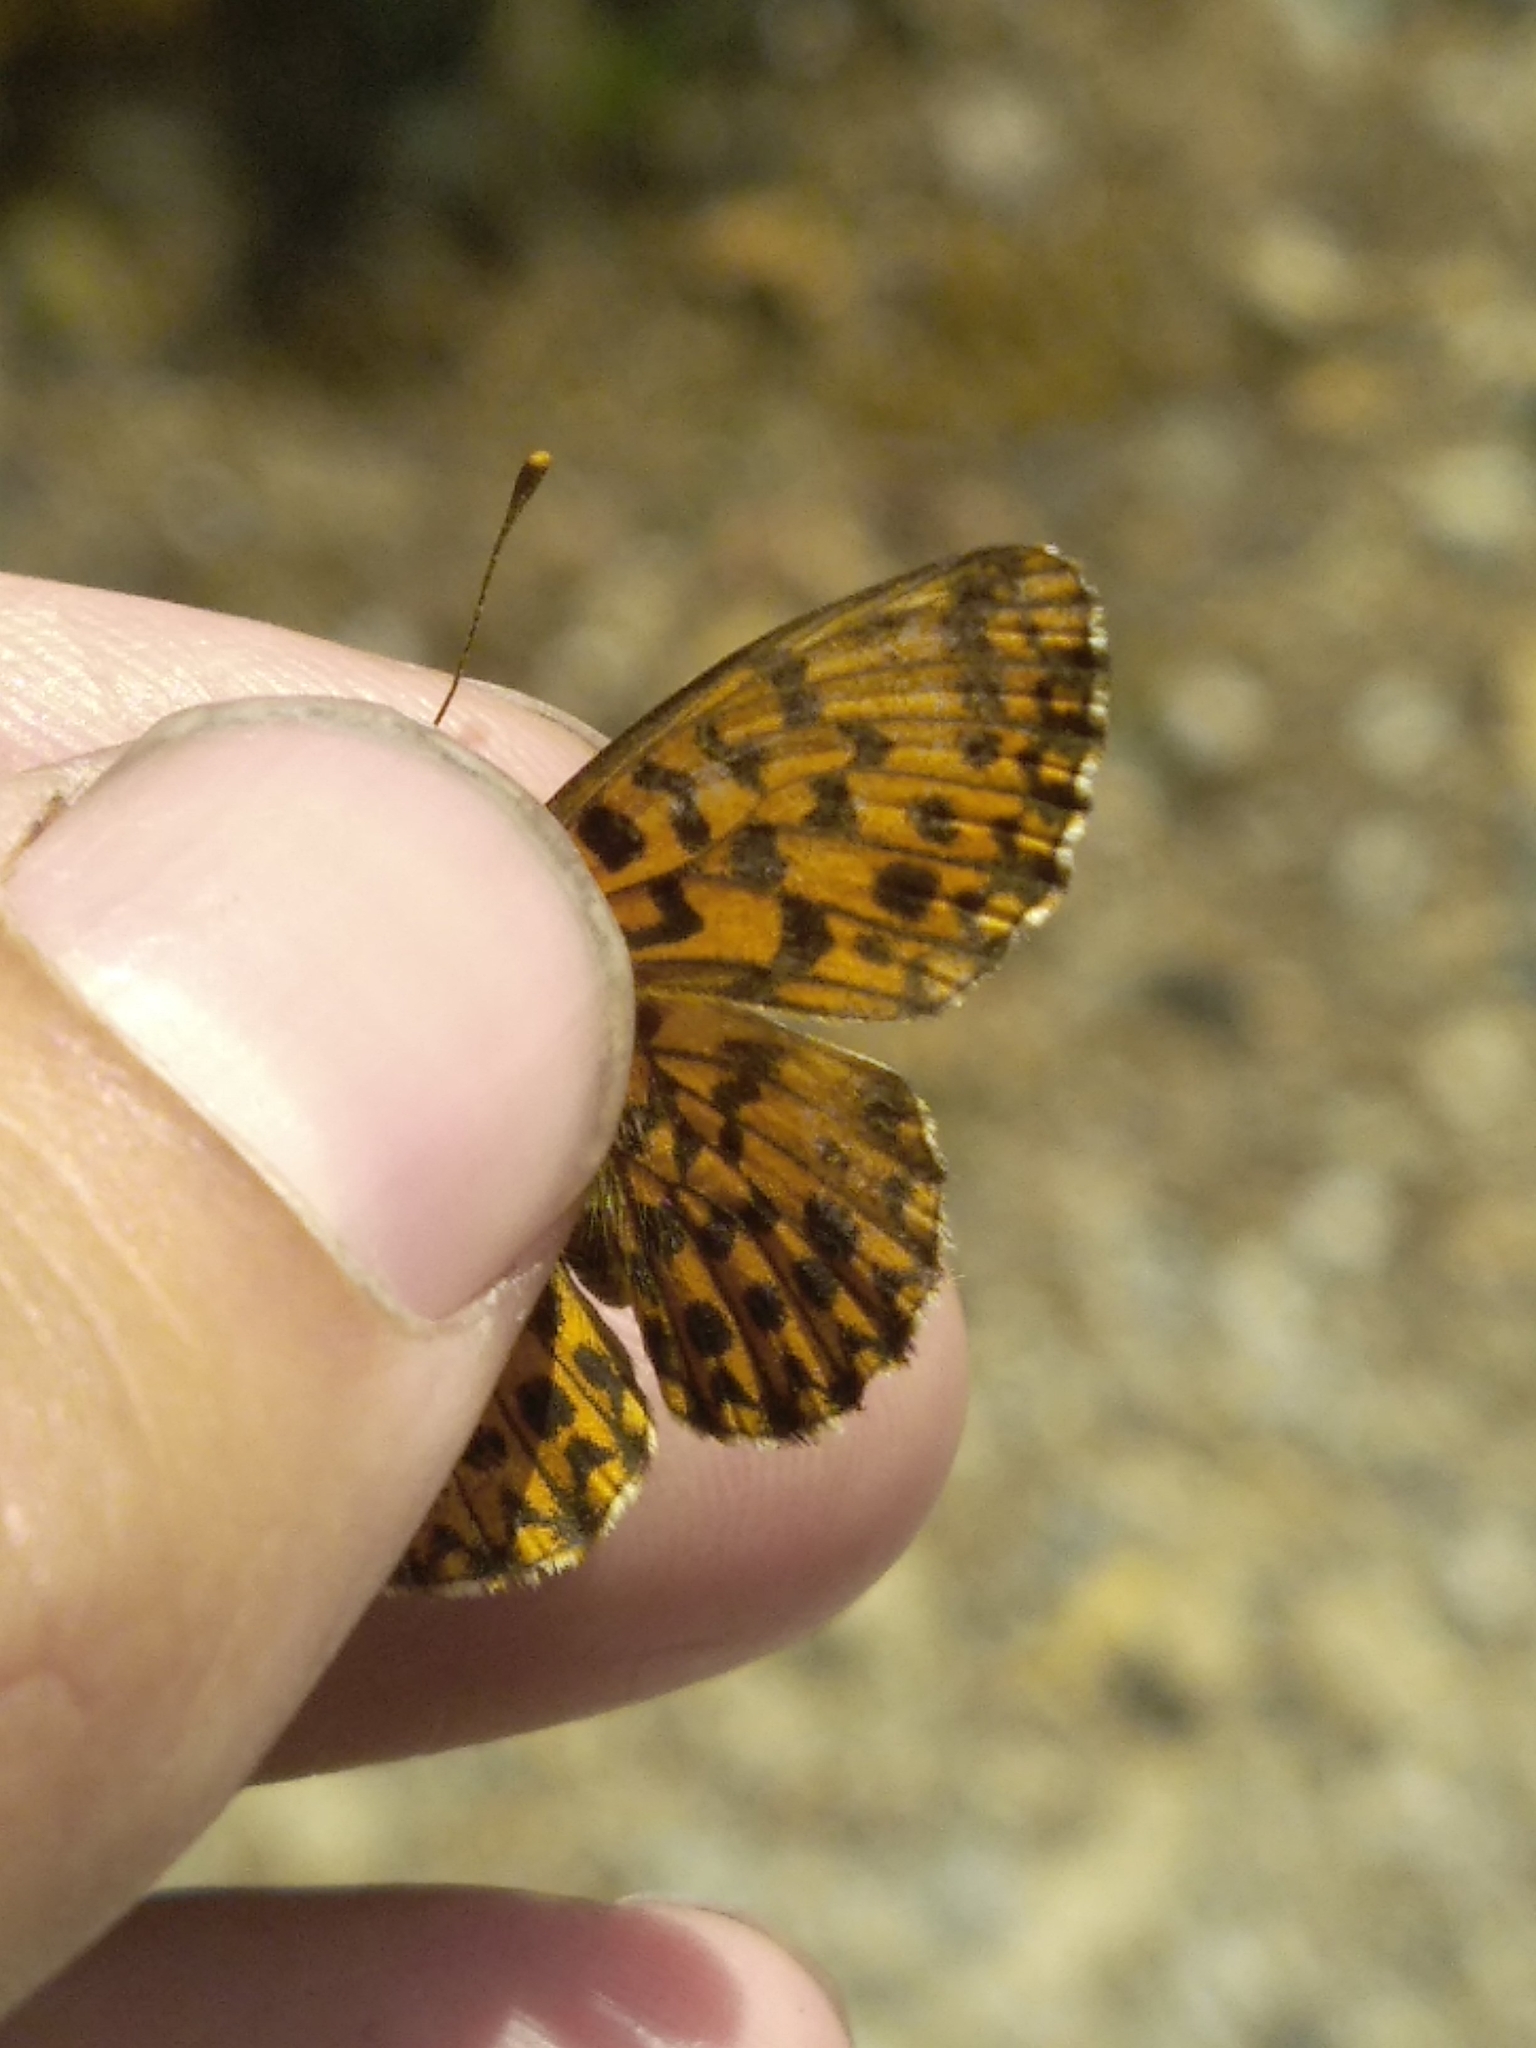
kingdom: Animalia
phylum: Arthropoda
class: Insecta
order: Lepidoptera
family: Nymphalidae
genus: Boloria
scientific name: Boloria dia
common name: Weaver's fritillary
